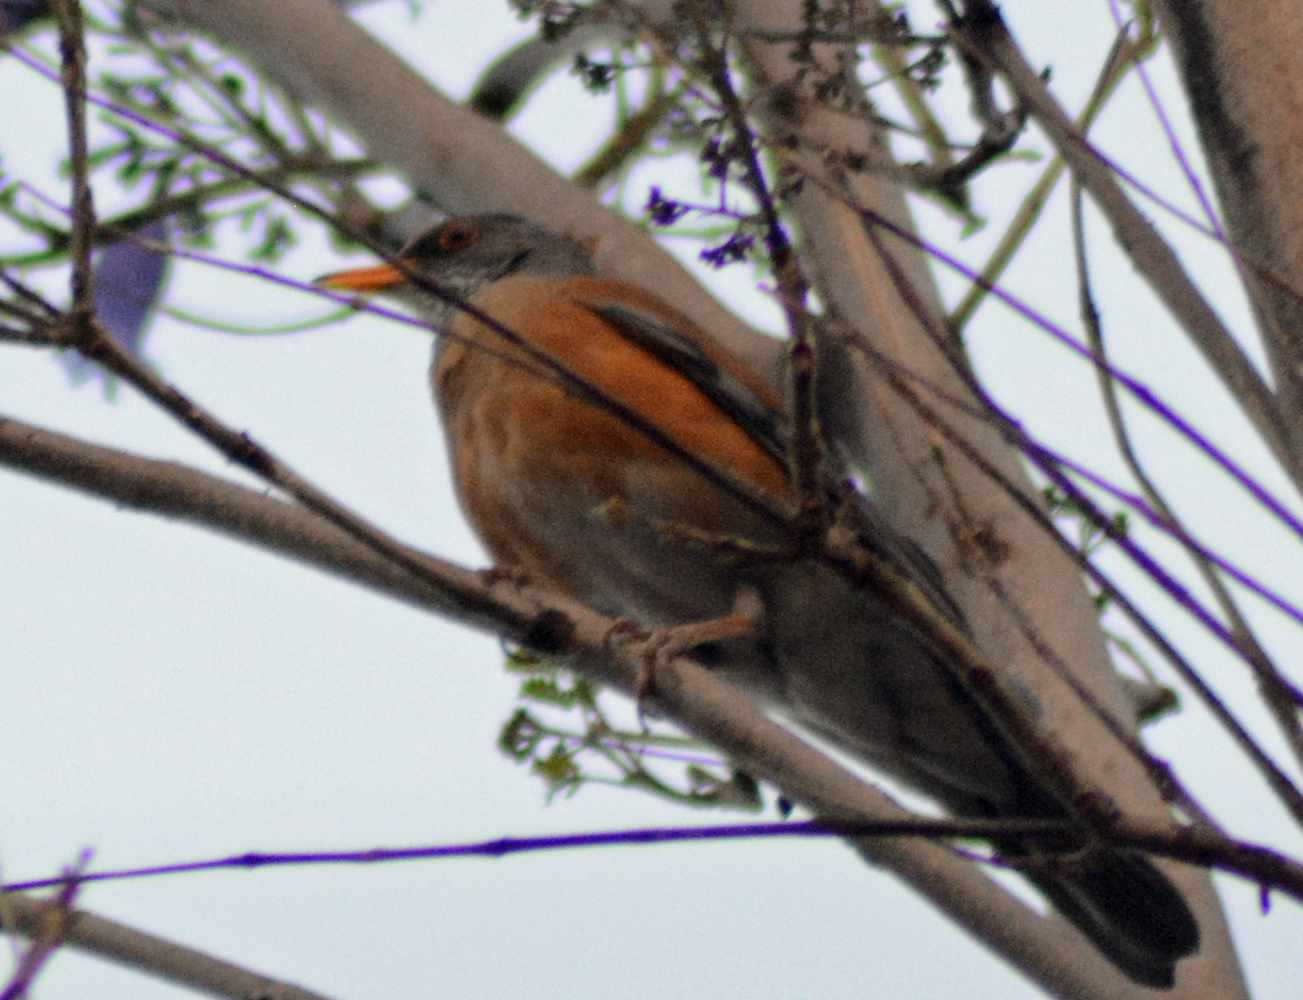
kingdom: Animalia
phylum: Chordata
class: Aves
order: Passeriformes
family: Turdidae
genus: Turdus
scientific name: Turdus rufopalliatus
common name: Rufous-backed robin
